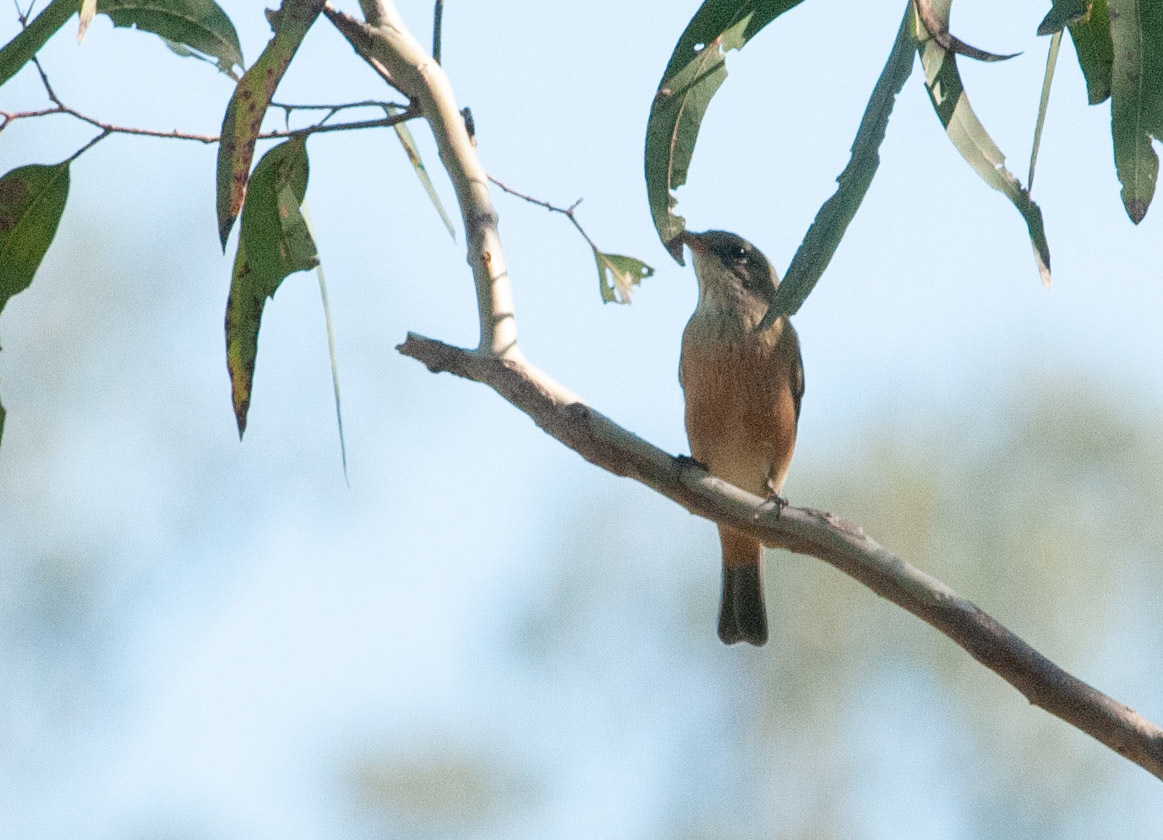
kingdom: Animalia
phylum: Chordata
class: Aves
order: Passeriformes
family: Pachycephalidae
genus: Pachycephala
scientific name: Pachycephala rufiventris
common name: Rufous whistler
